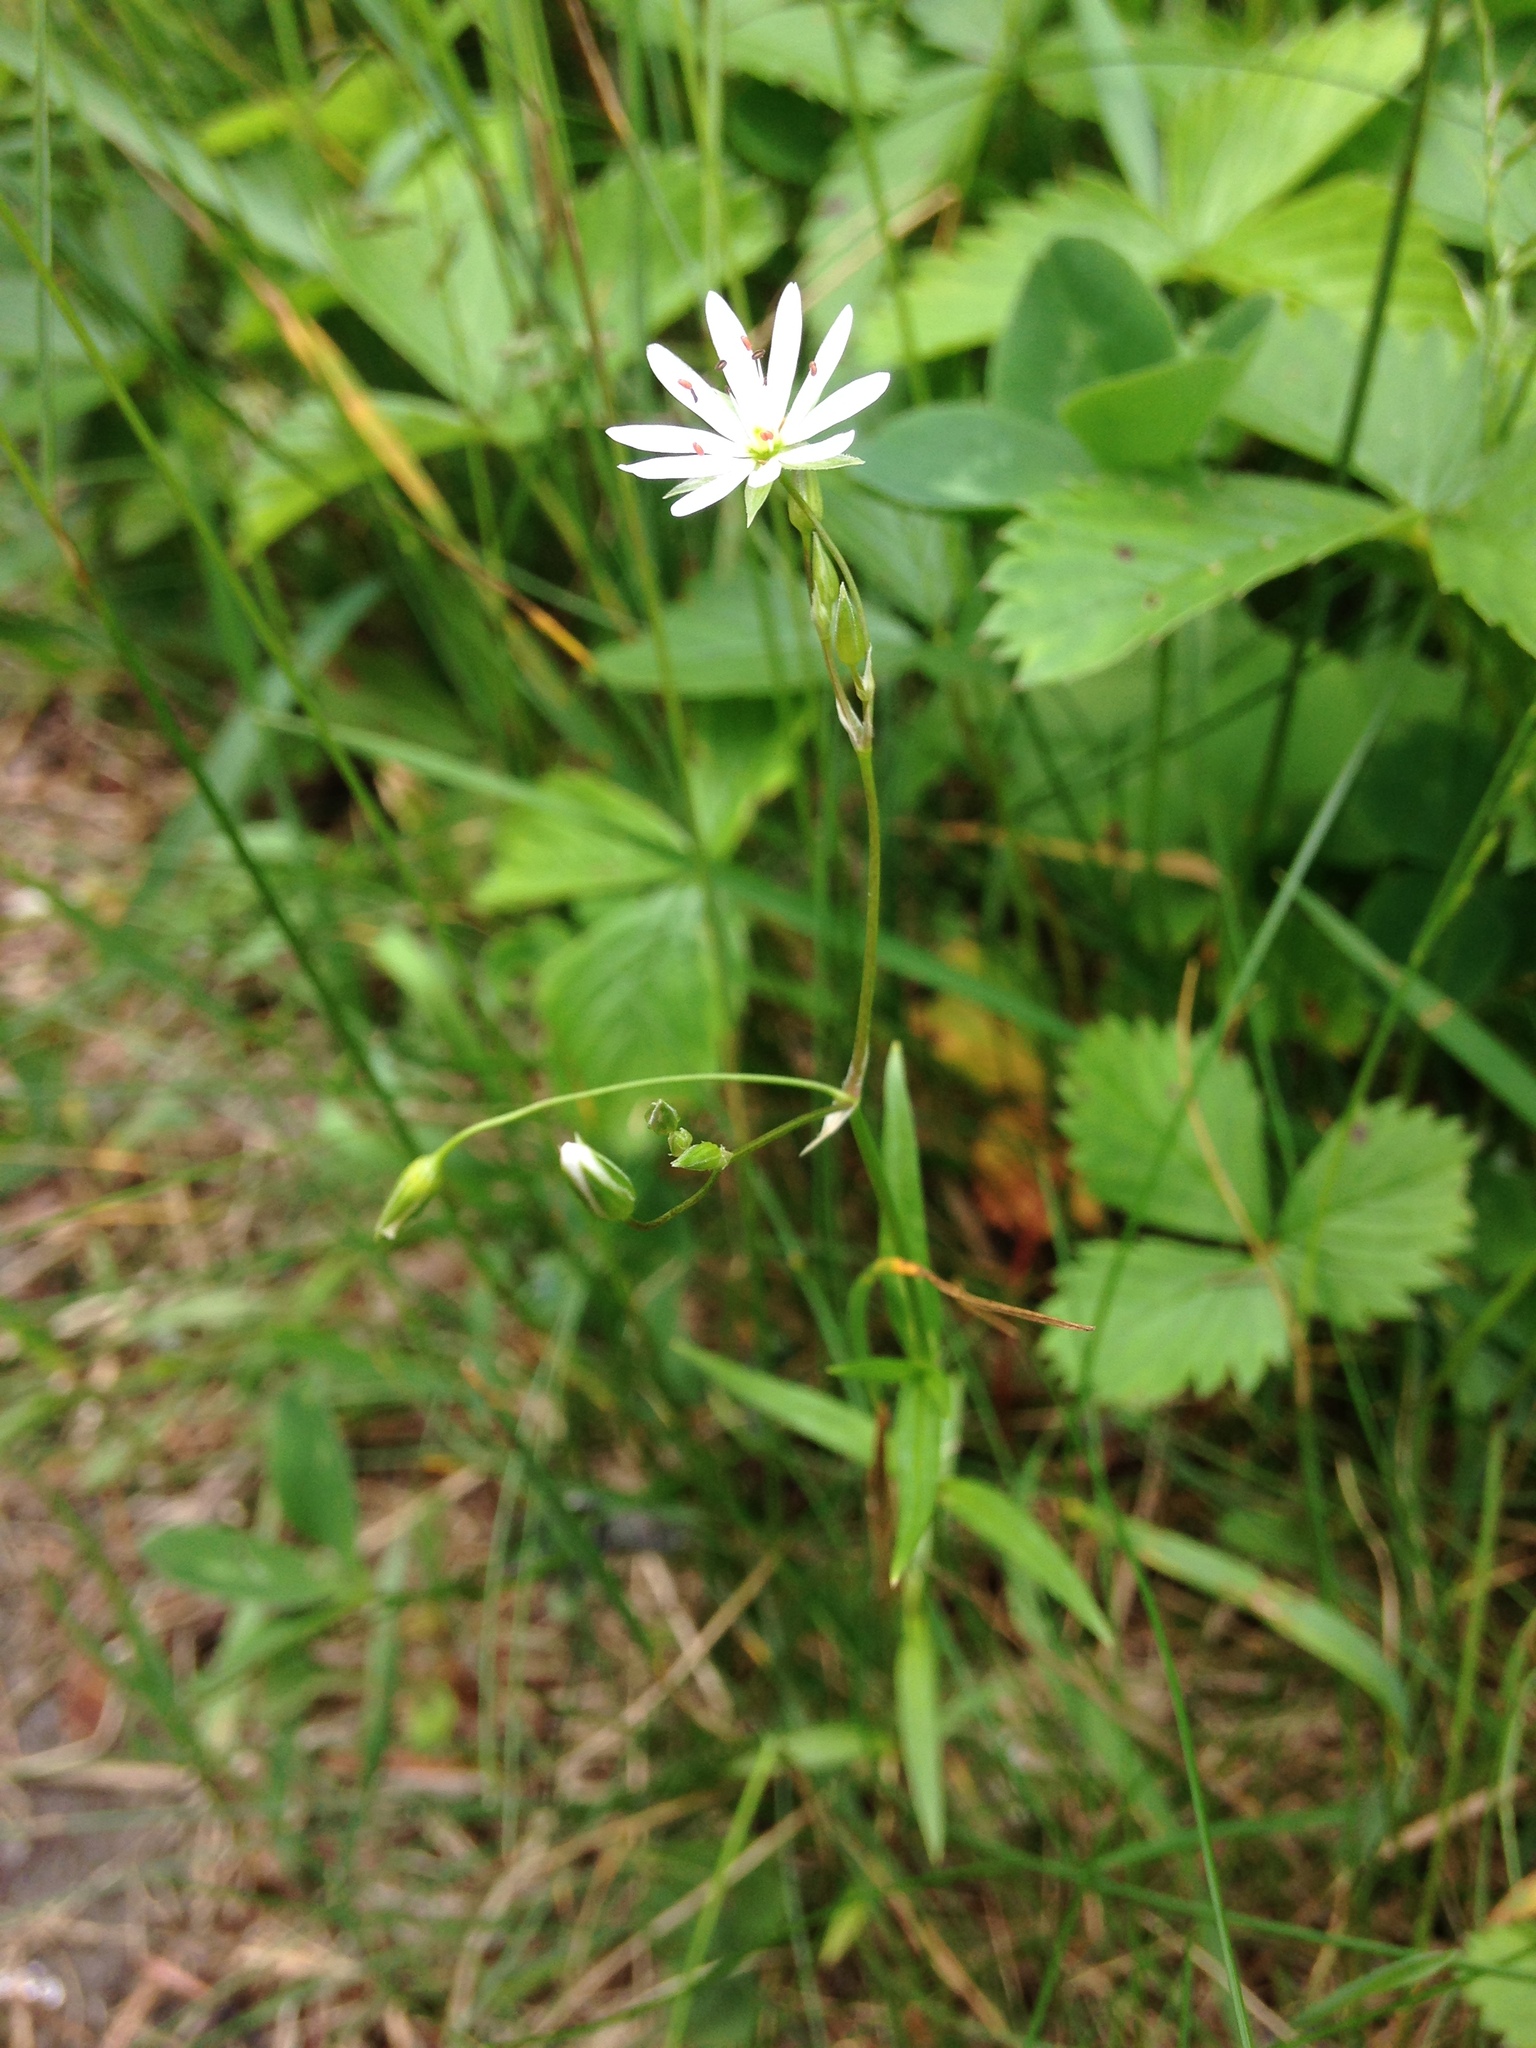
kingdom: Plantae
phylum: Tracheophyta
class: Magnoliopsida
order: Caryophyllales
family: Caryophyllaceae
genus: Stellaria
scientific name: Stellaria graminea
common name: Grass-like starwort
